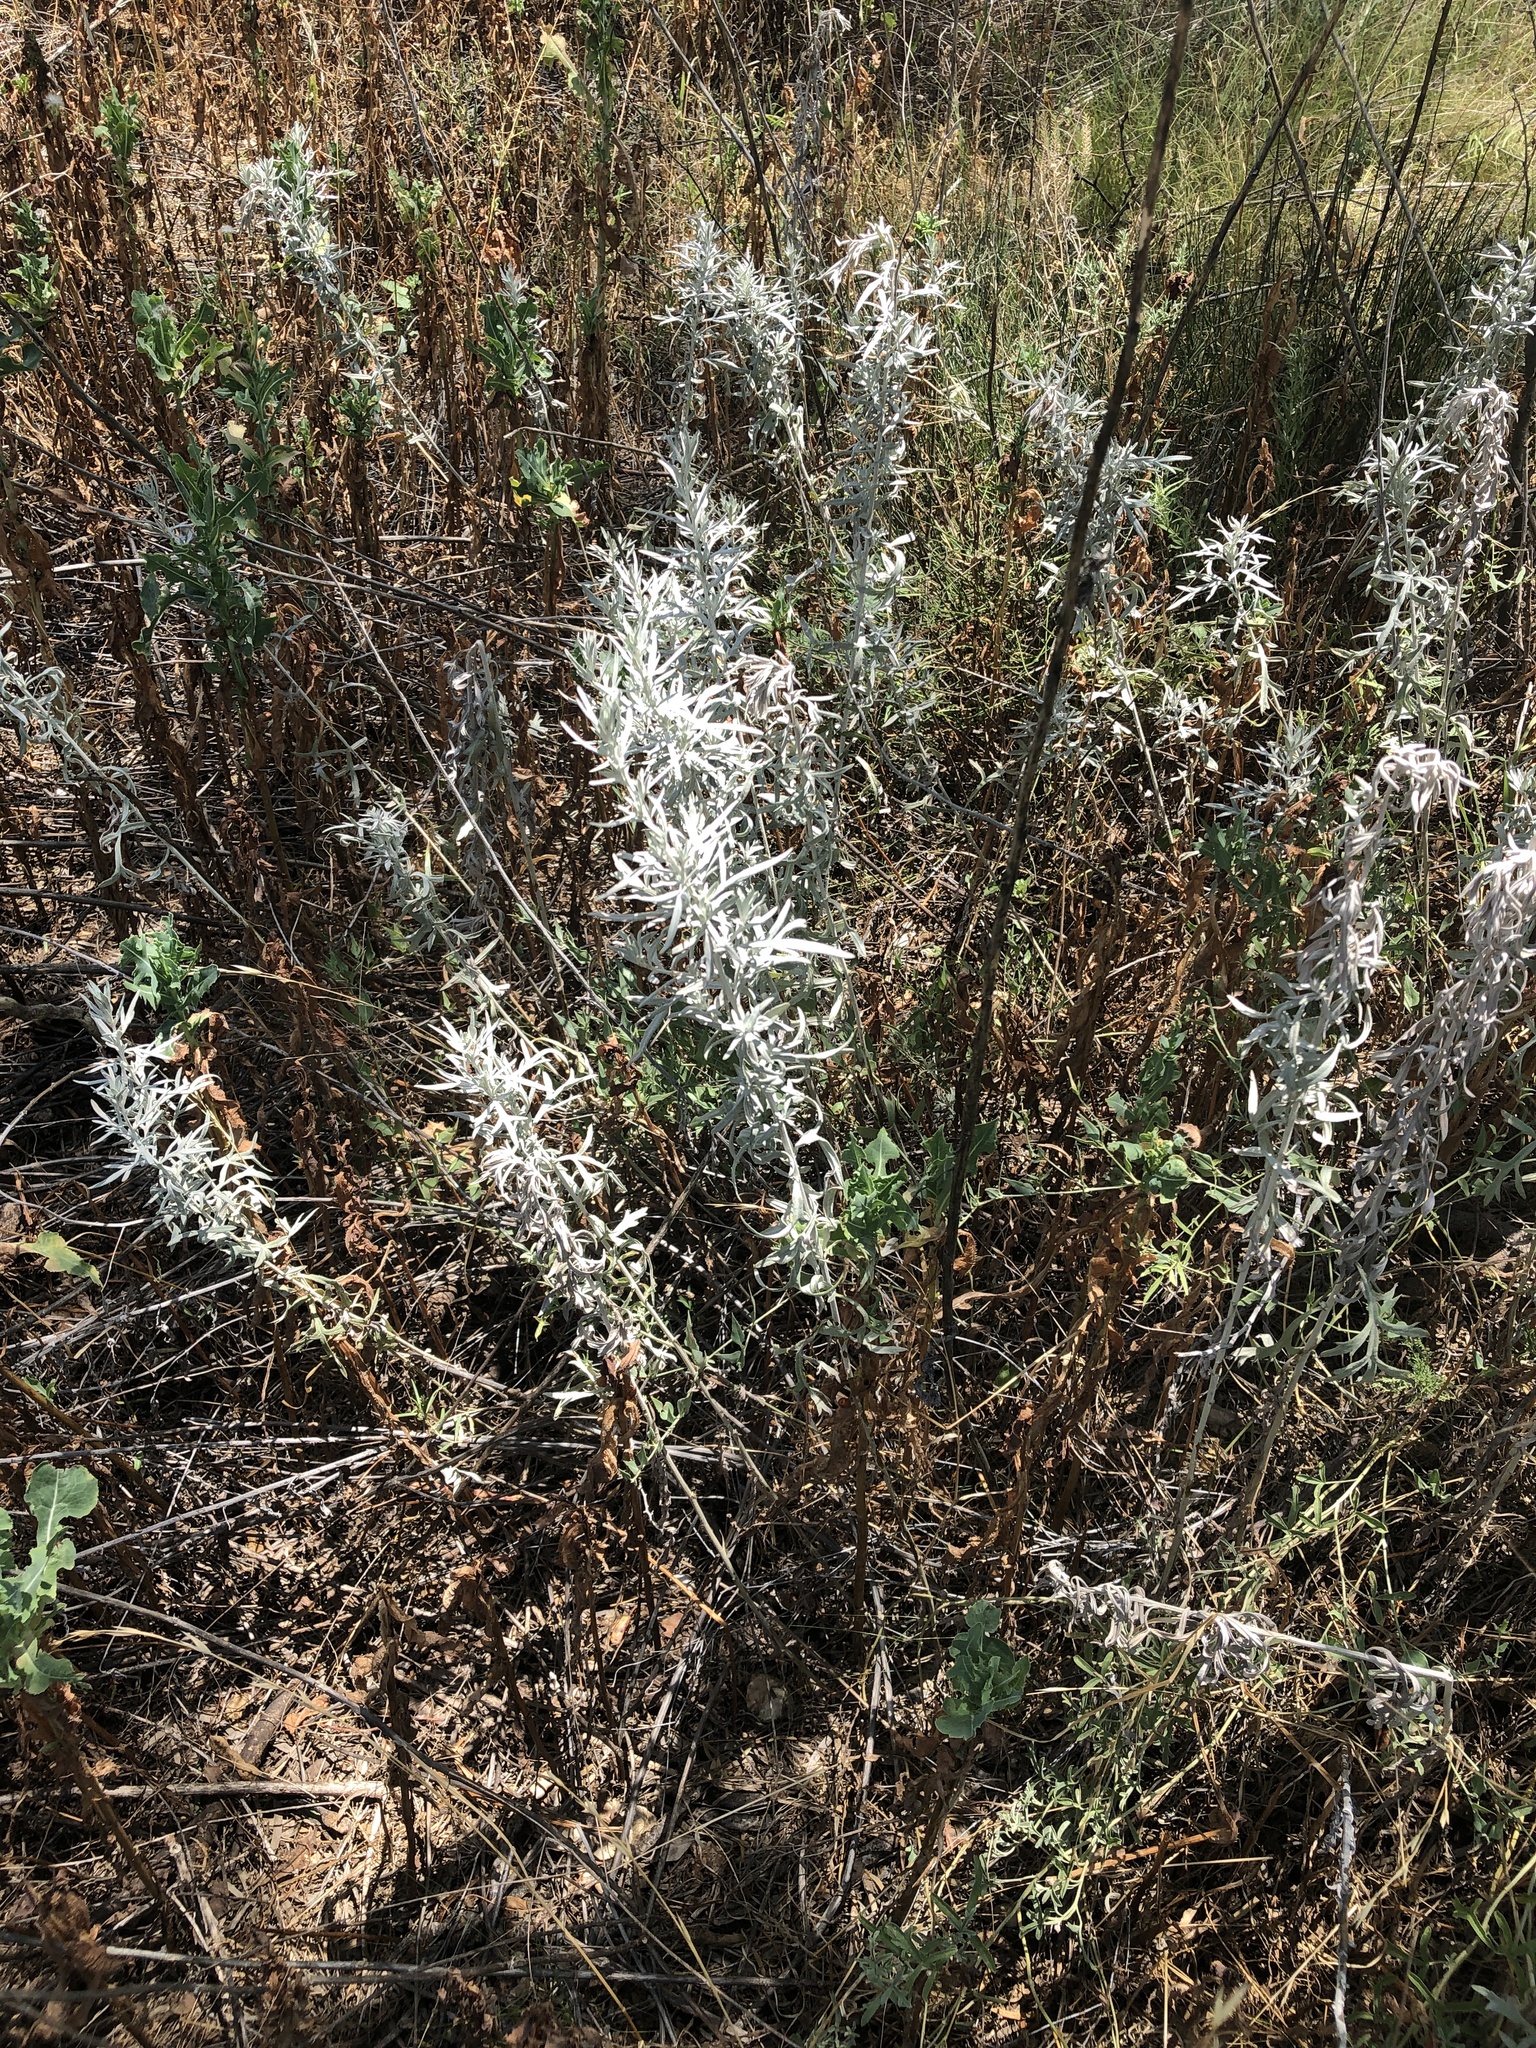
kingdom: Plantae
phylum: Tracheophyta
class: Magnoliopsida
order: Asterales
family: Asteraceae
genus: Artemisia
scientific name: Artemisia ludoviciana
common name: Western mugwort
